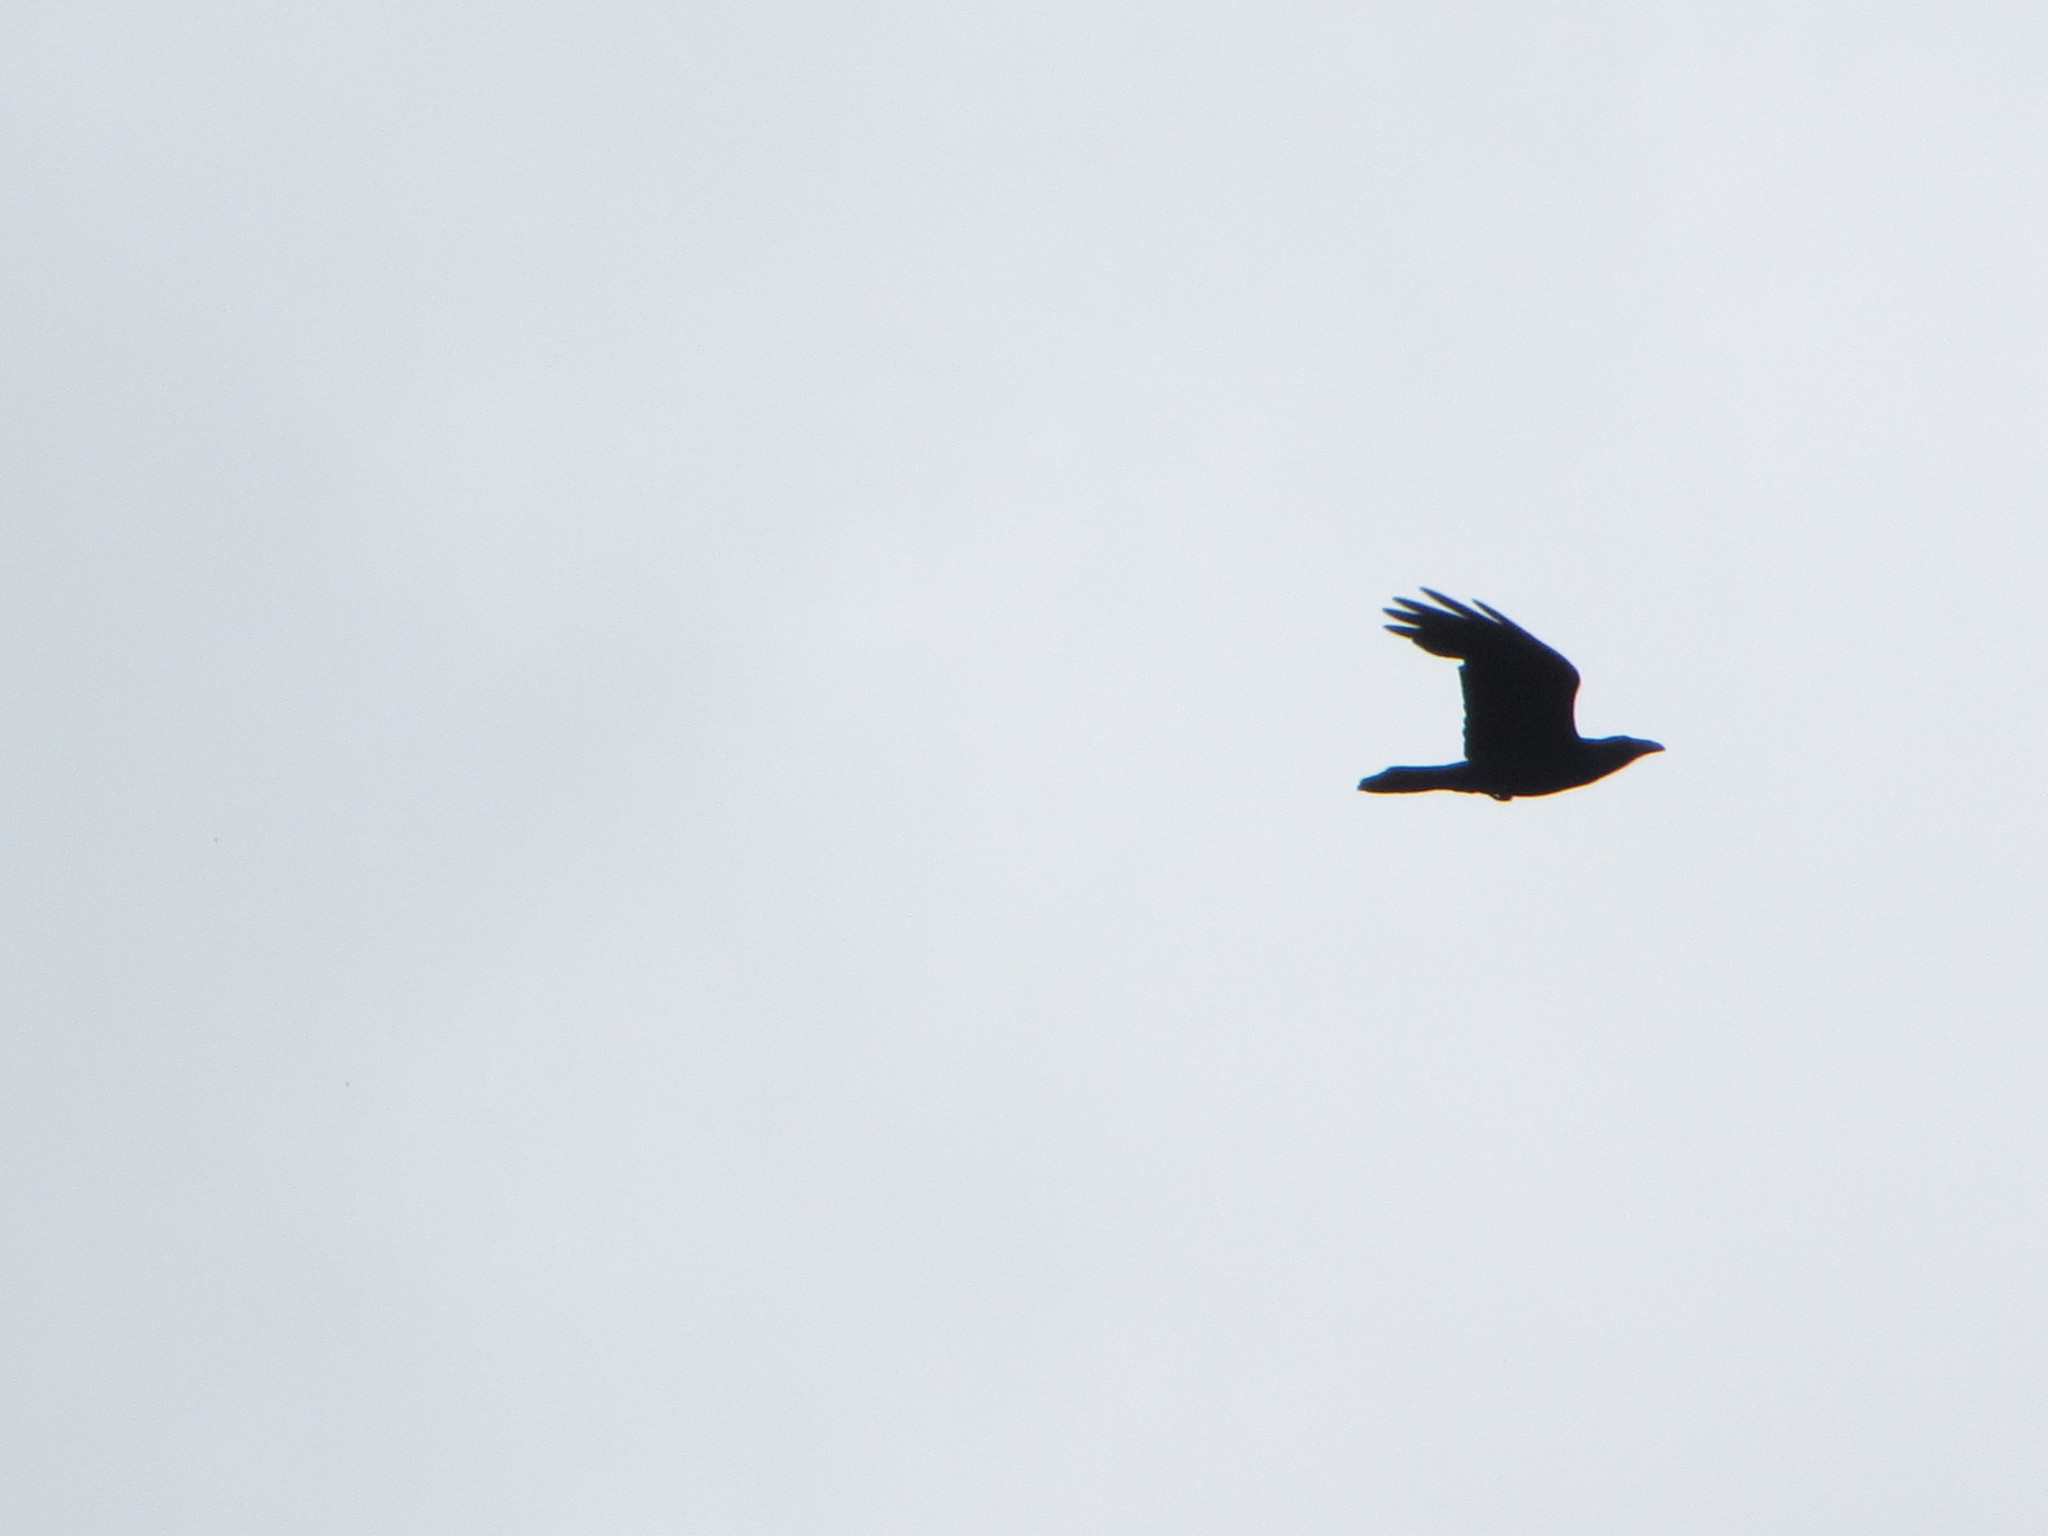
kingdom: Animalia
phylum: Chordata
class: Aves
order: Passeriformes
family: Corvidae
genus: Corvus
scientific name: Corvus corax
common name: Common raven
